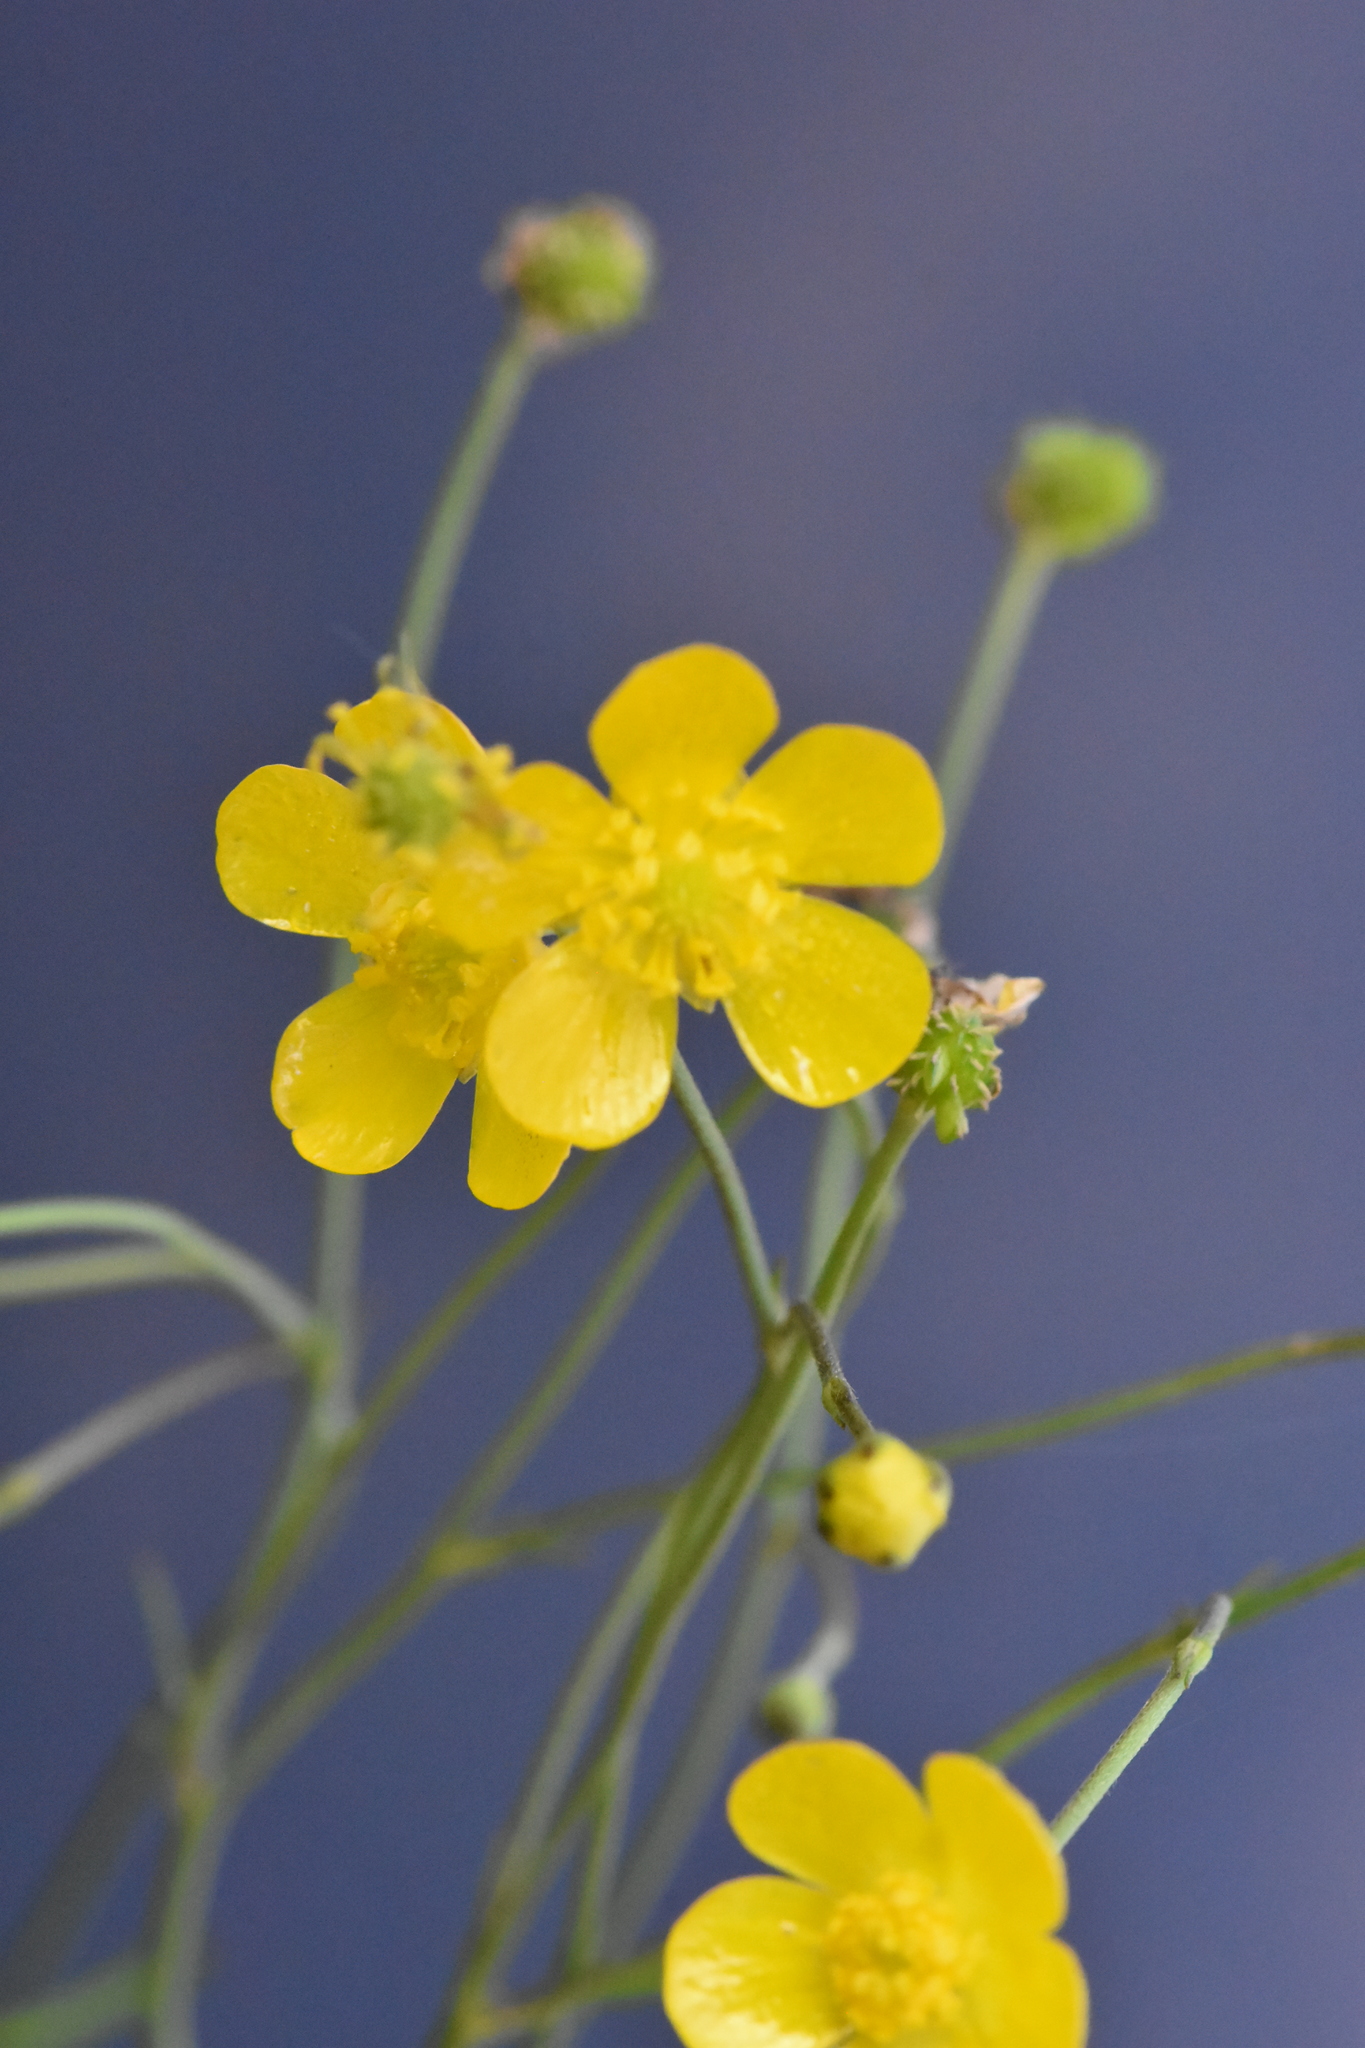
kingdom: Plantae
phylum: Tracheophyta
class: Magnoliopsida
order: Ranunculales
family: Ranunculaceae
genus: Ranunculus
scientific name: Ranunculus acris
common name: Meadow buttercup
